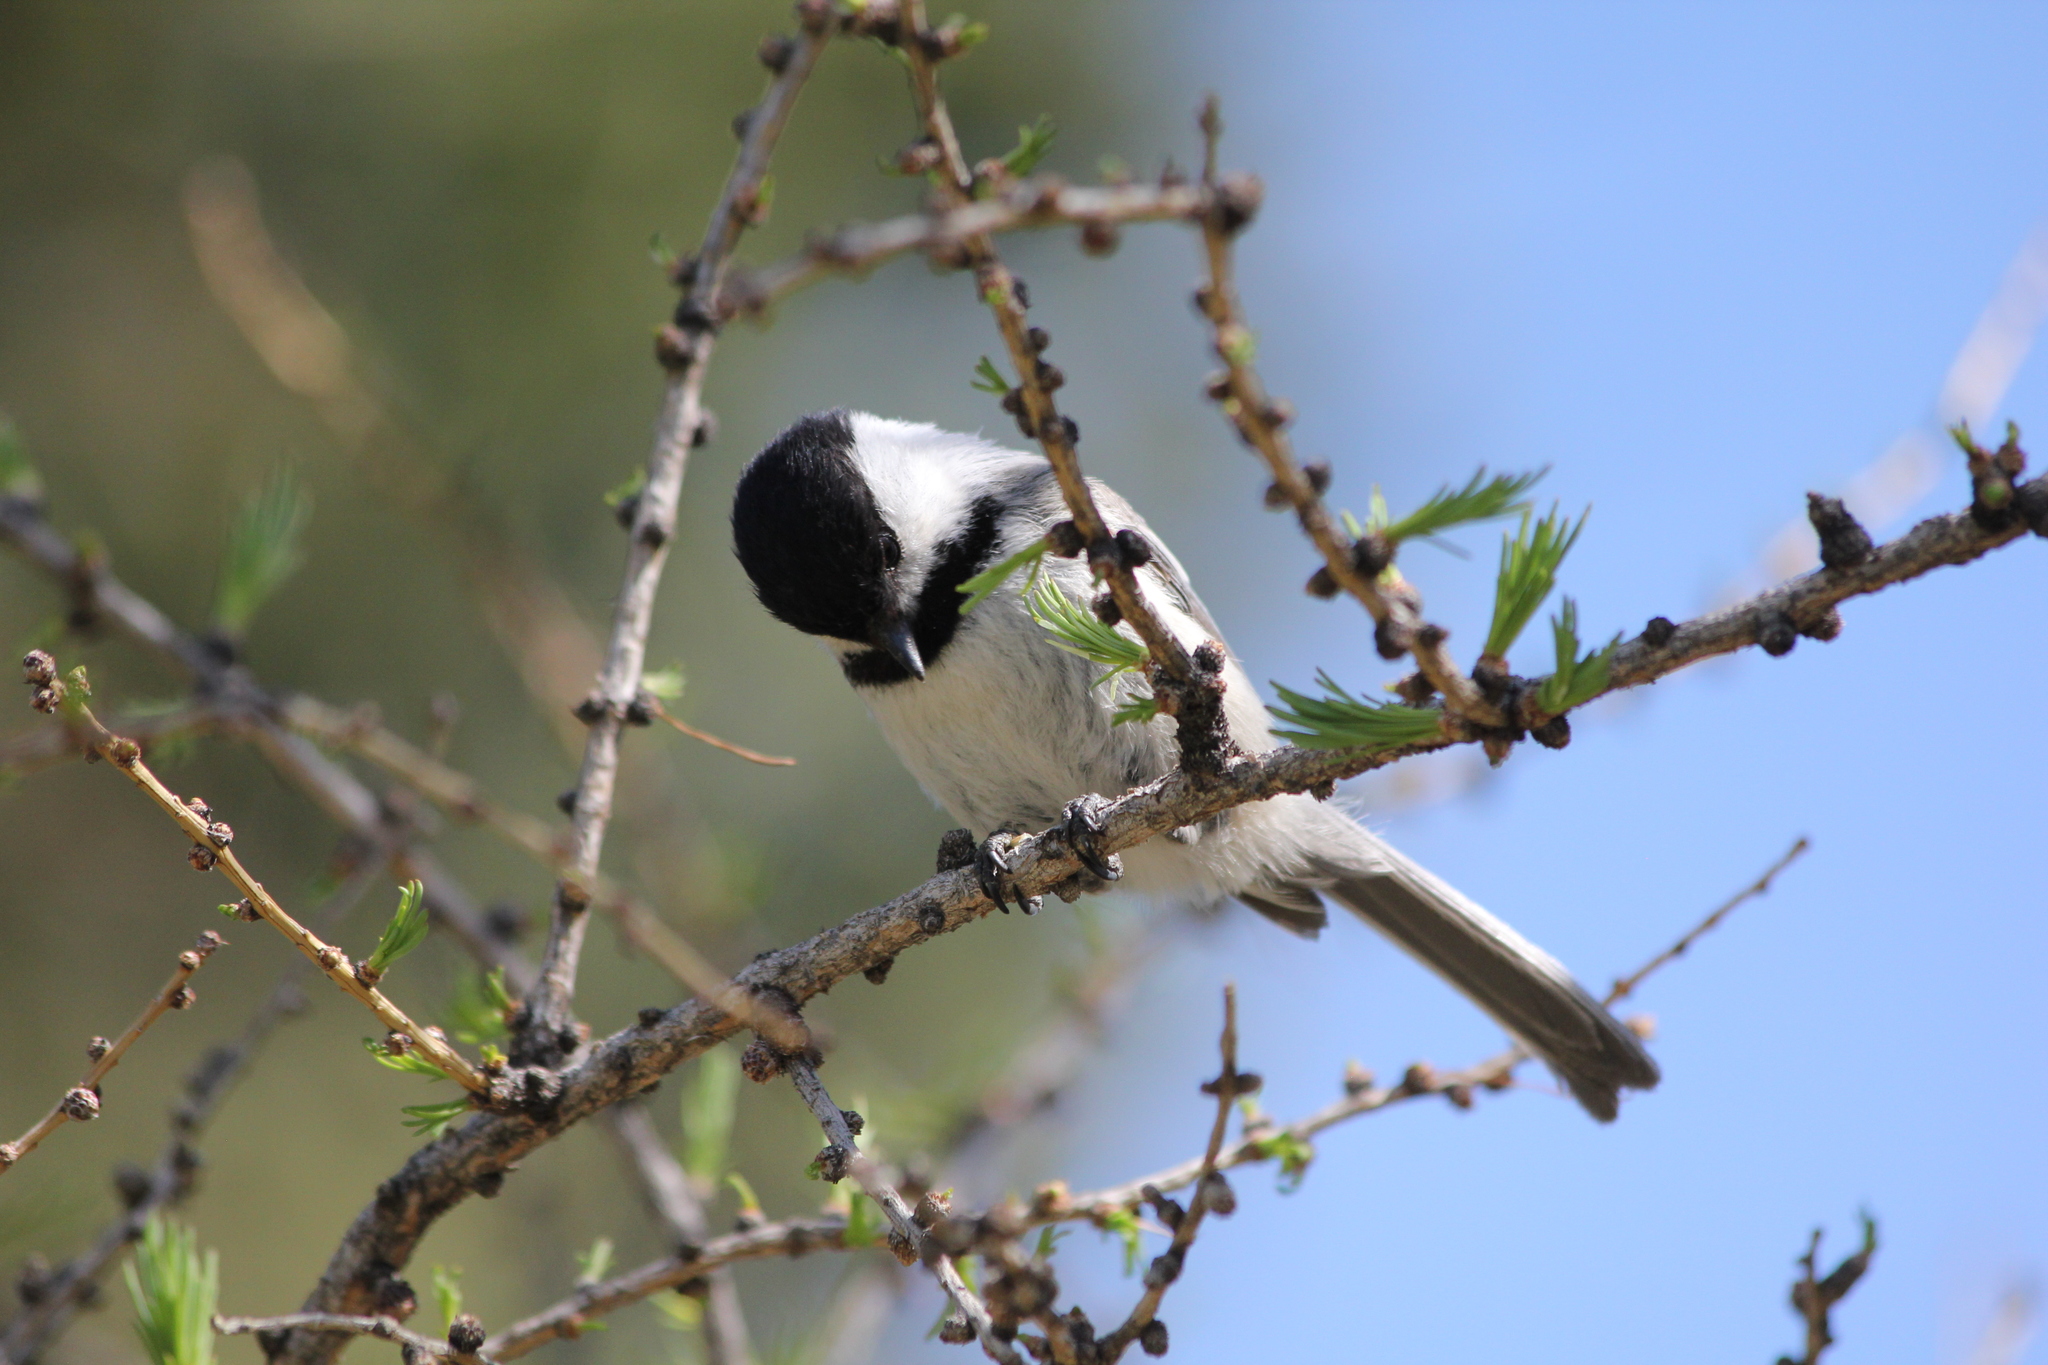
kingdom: Animalia
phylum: Chordata
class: Aves
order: Passeriformes
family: Paridae
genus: Poecile
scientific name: Poecile atricapillus
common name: Black-capped chickadee
